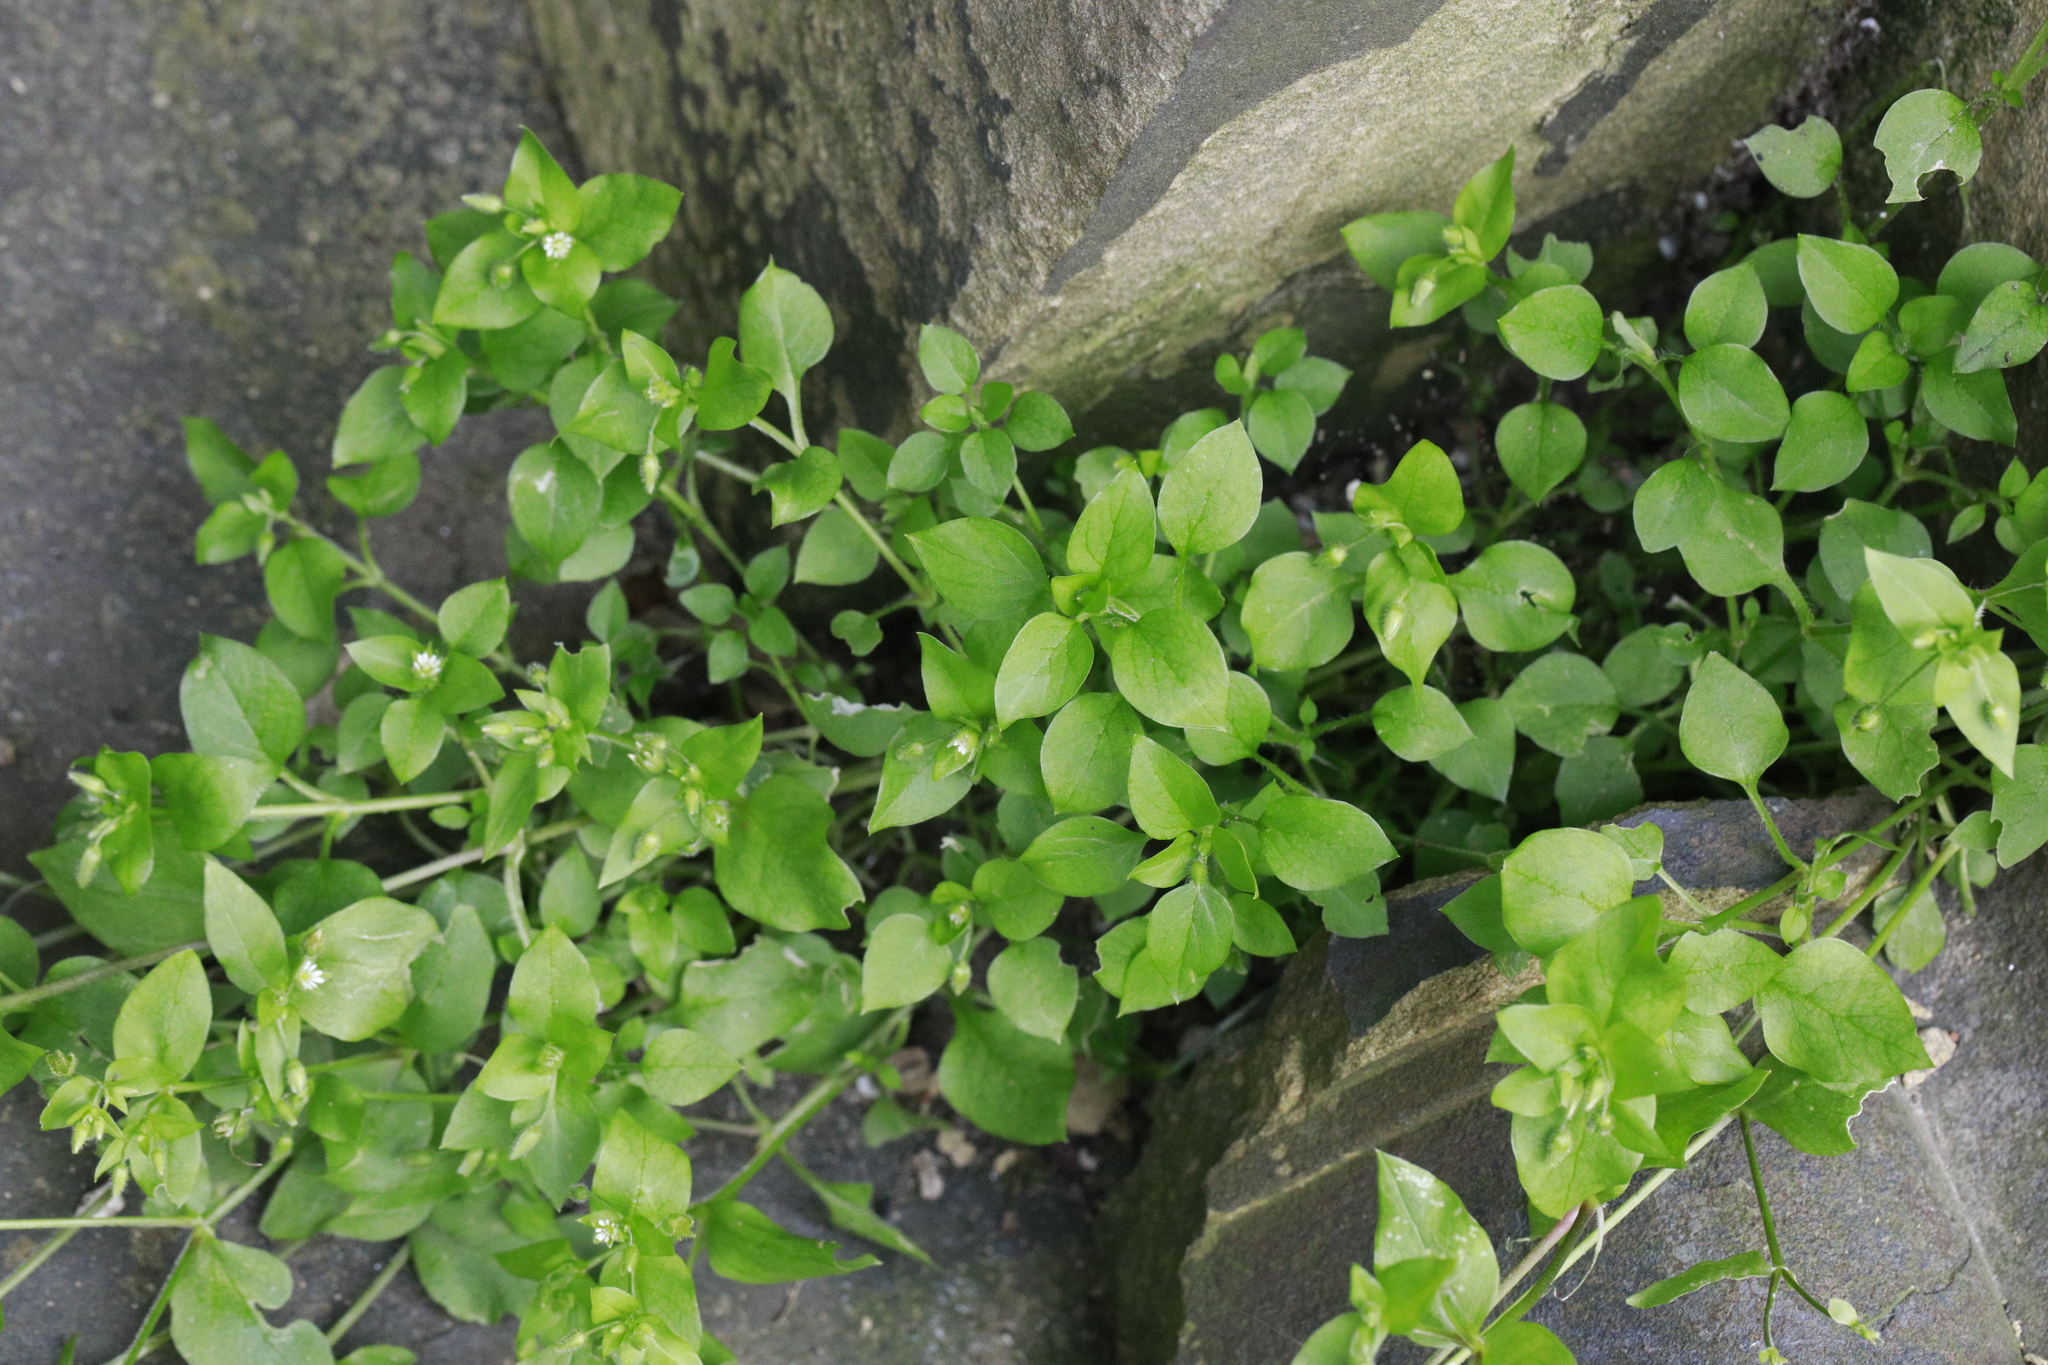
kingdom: Plantae
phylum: Tracheophyta
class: Magnoliopsida
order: Caryophyllales
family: Caryophyllaceae
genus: Stellaria
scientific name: Stellaria media
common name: Common chickweed
